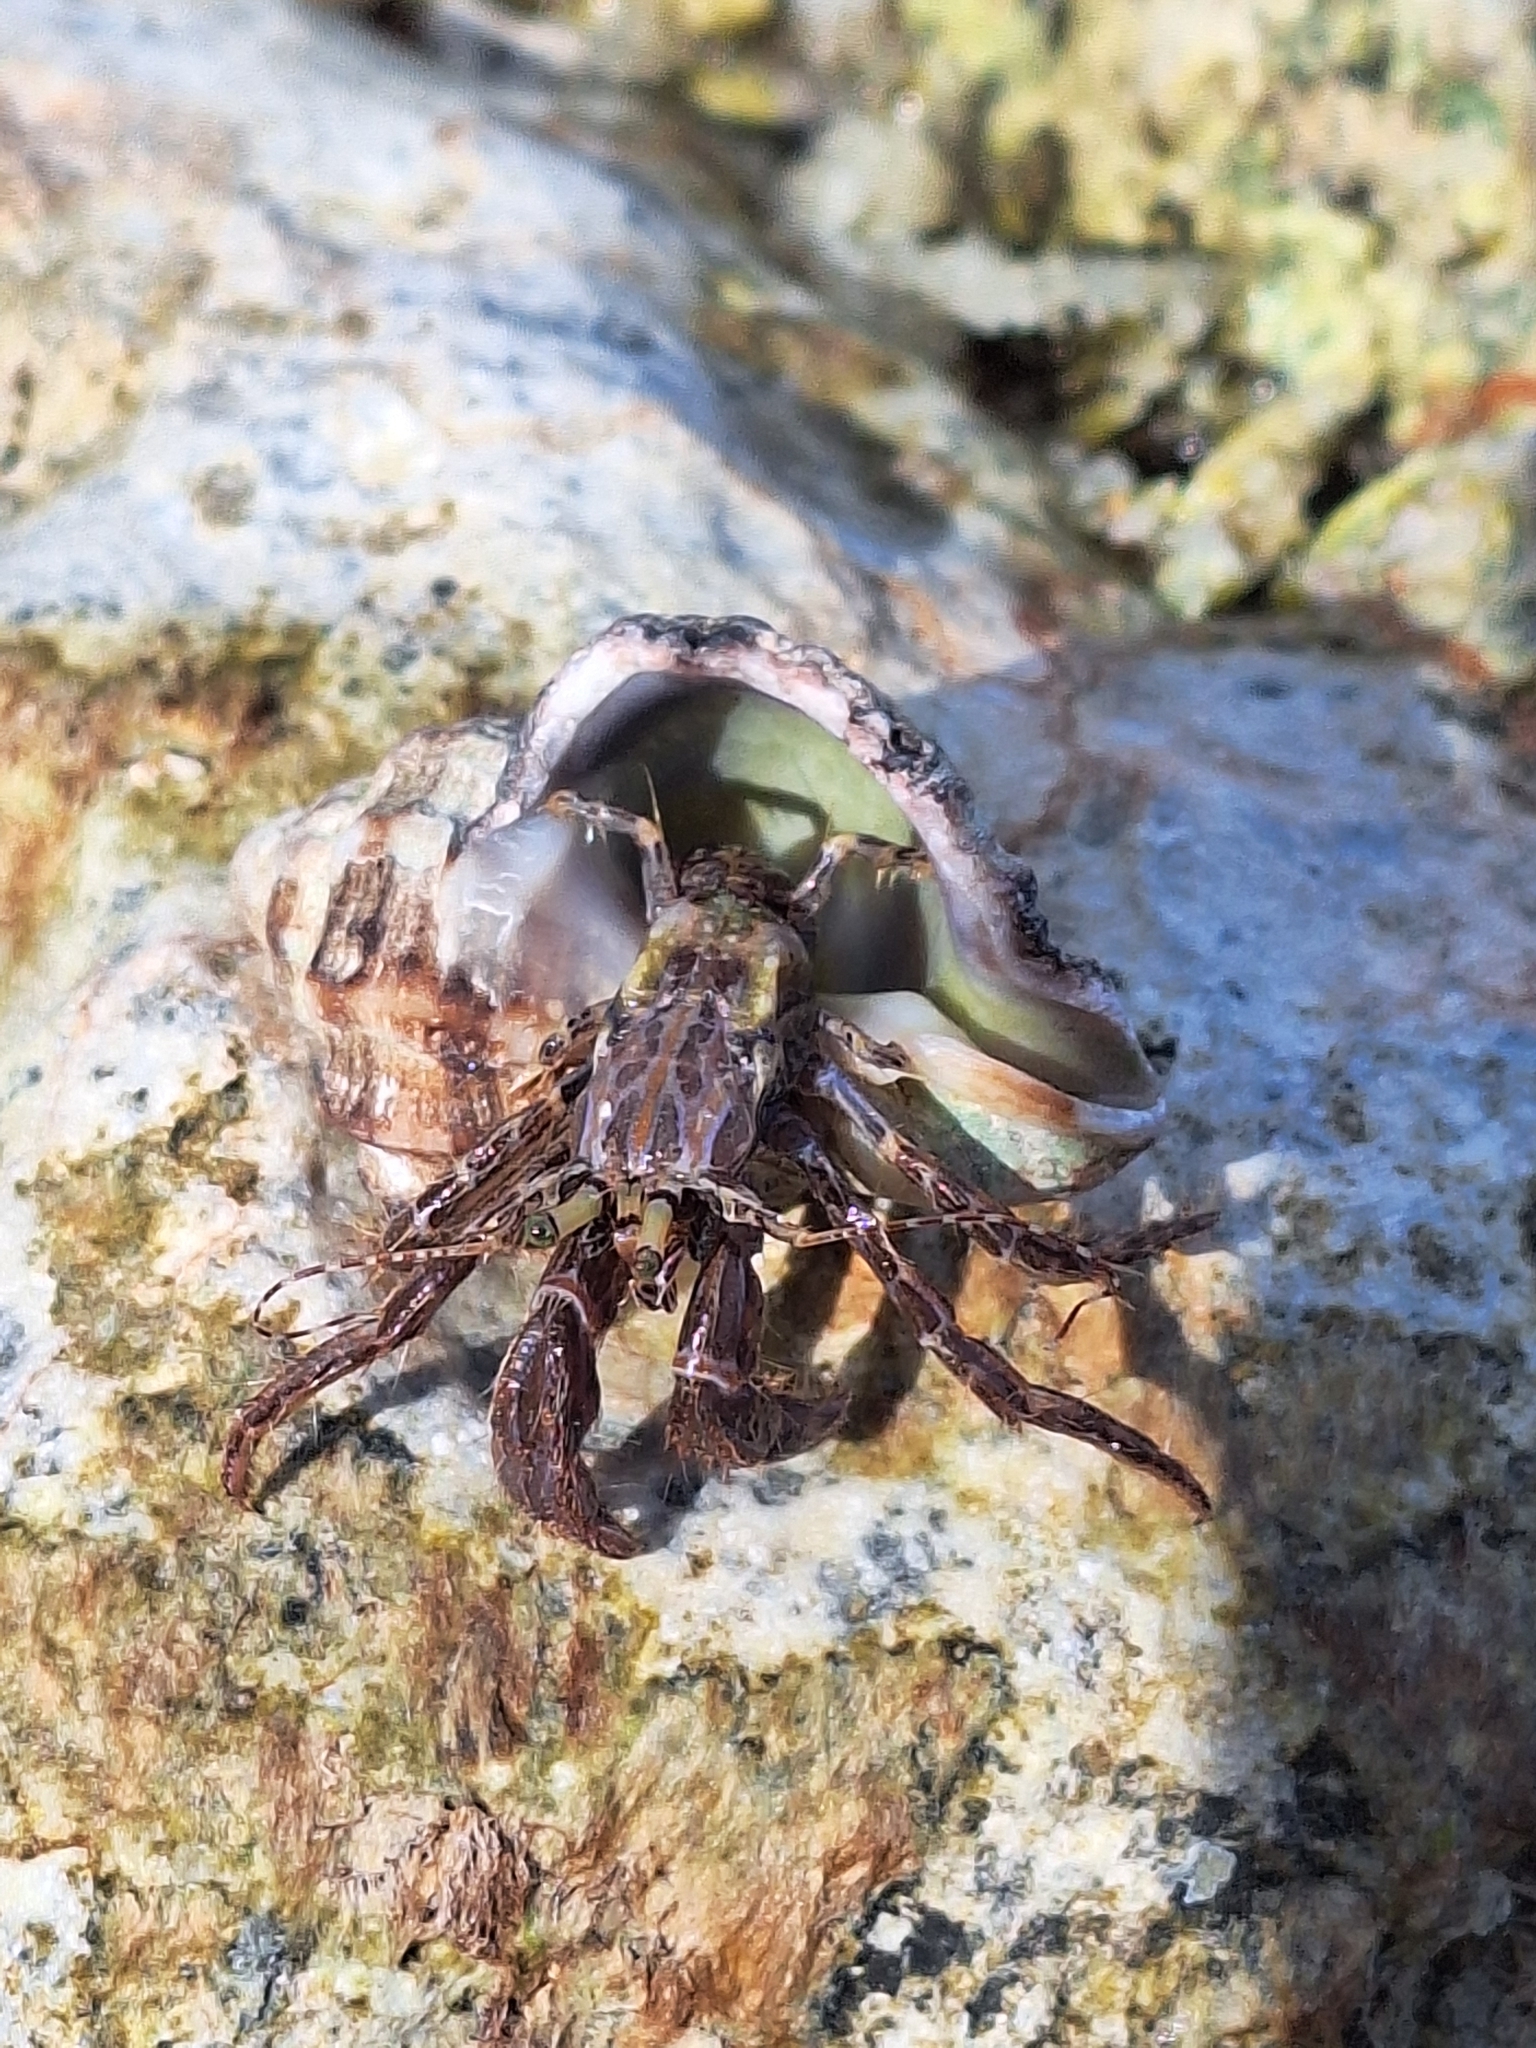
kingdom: Animalia
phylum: Arthropoda
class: Malacostraca
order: Decapoda
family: Paguridae
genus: Pagurus
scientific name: Pagurus anachoretus
